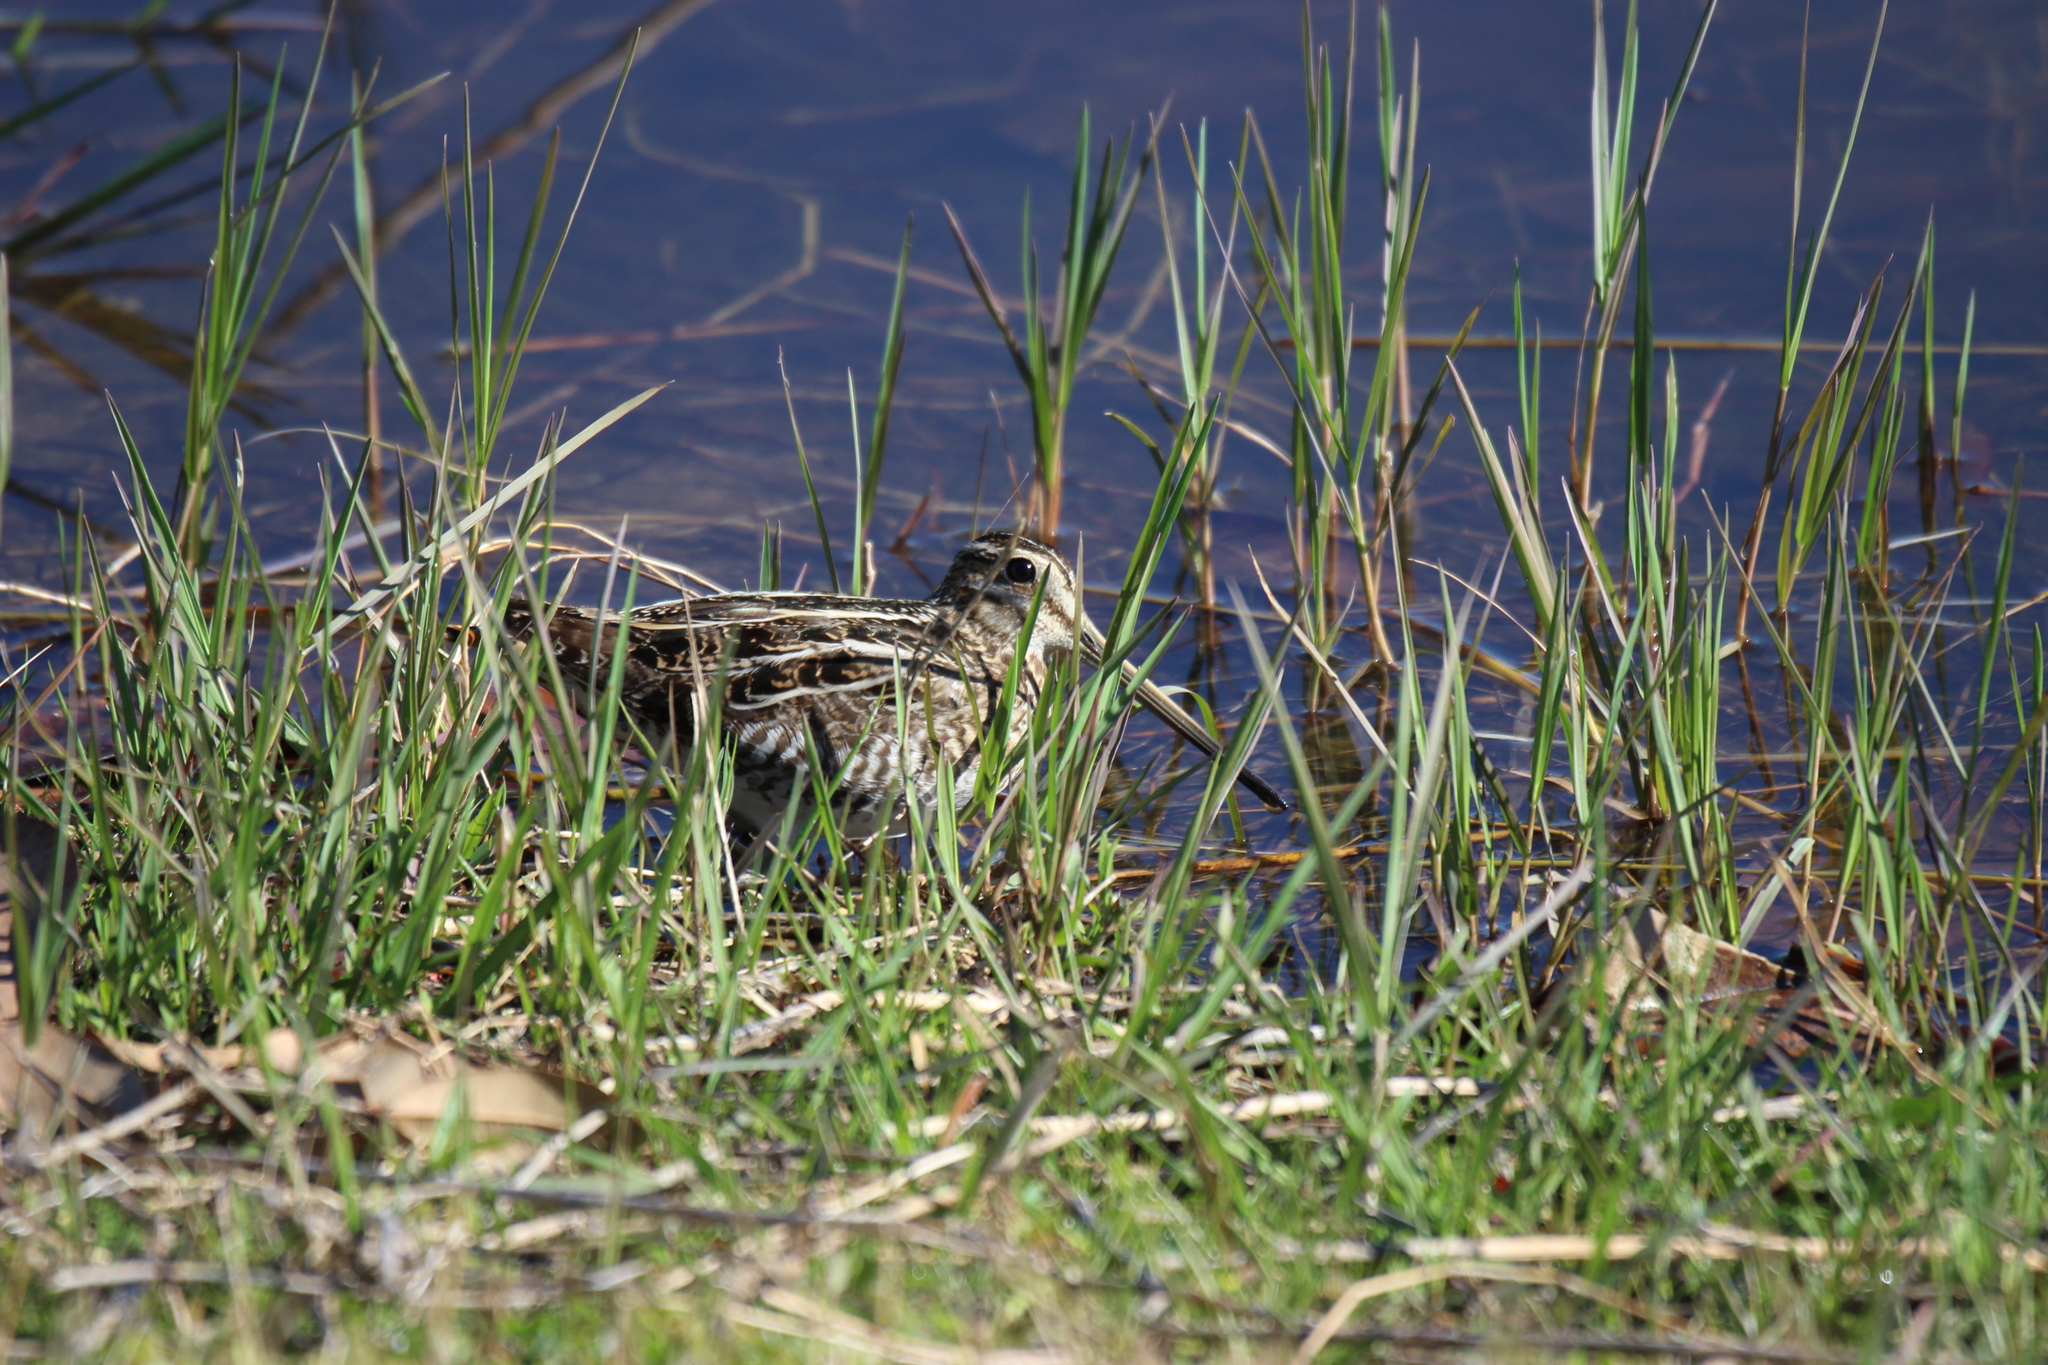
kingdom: Animalia
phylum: Chordata
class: Aves
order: Charadriiformes
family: Scolopacidae
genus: Gallinago
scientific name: Gallinago delicata
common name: Wilson's snipe
